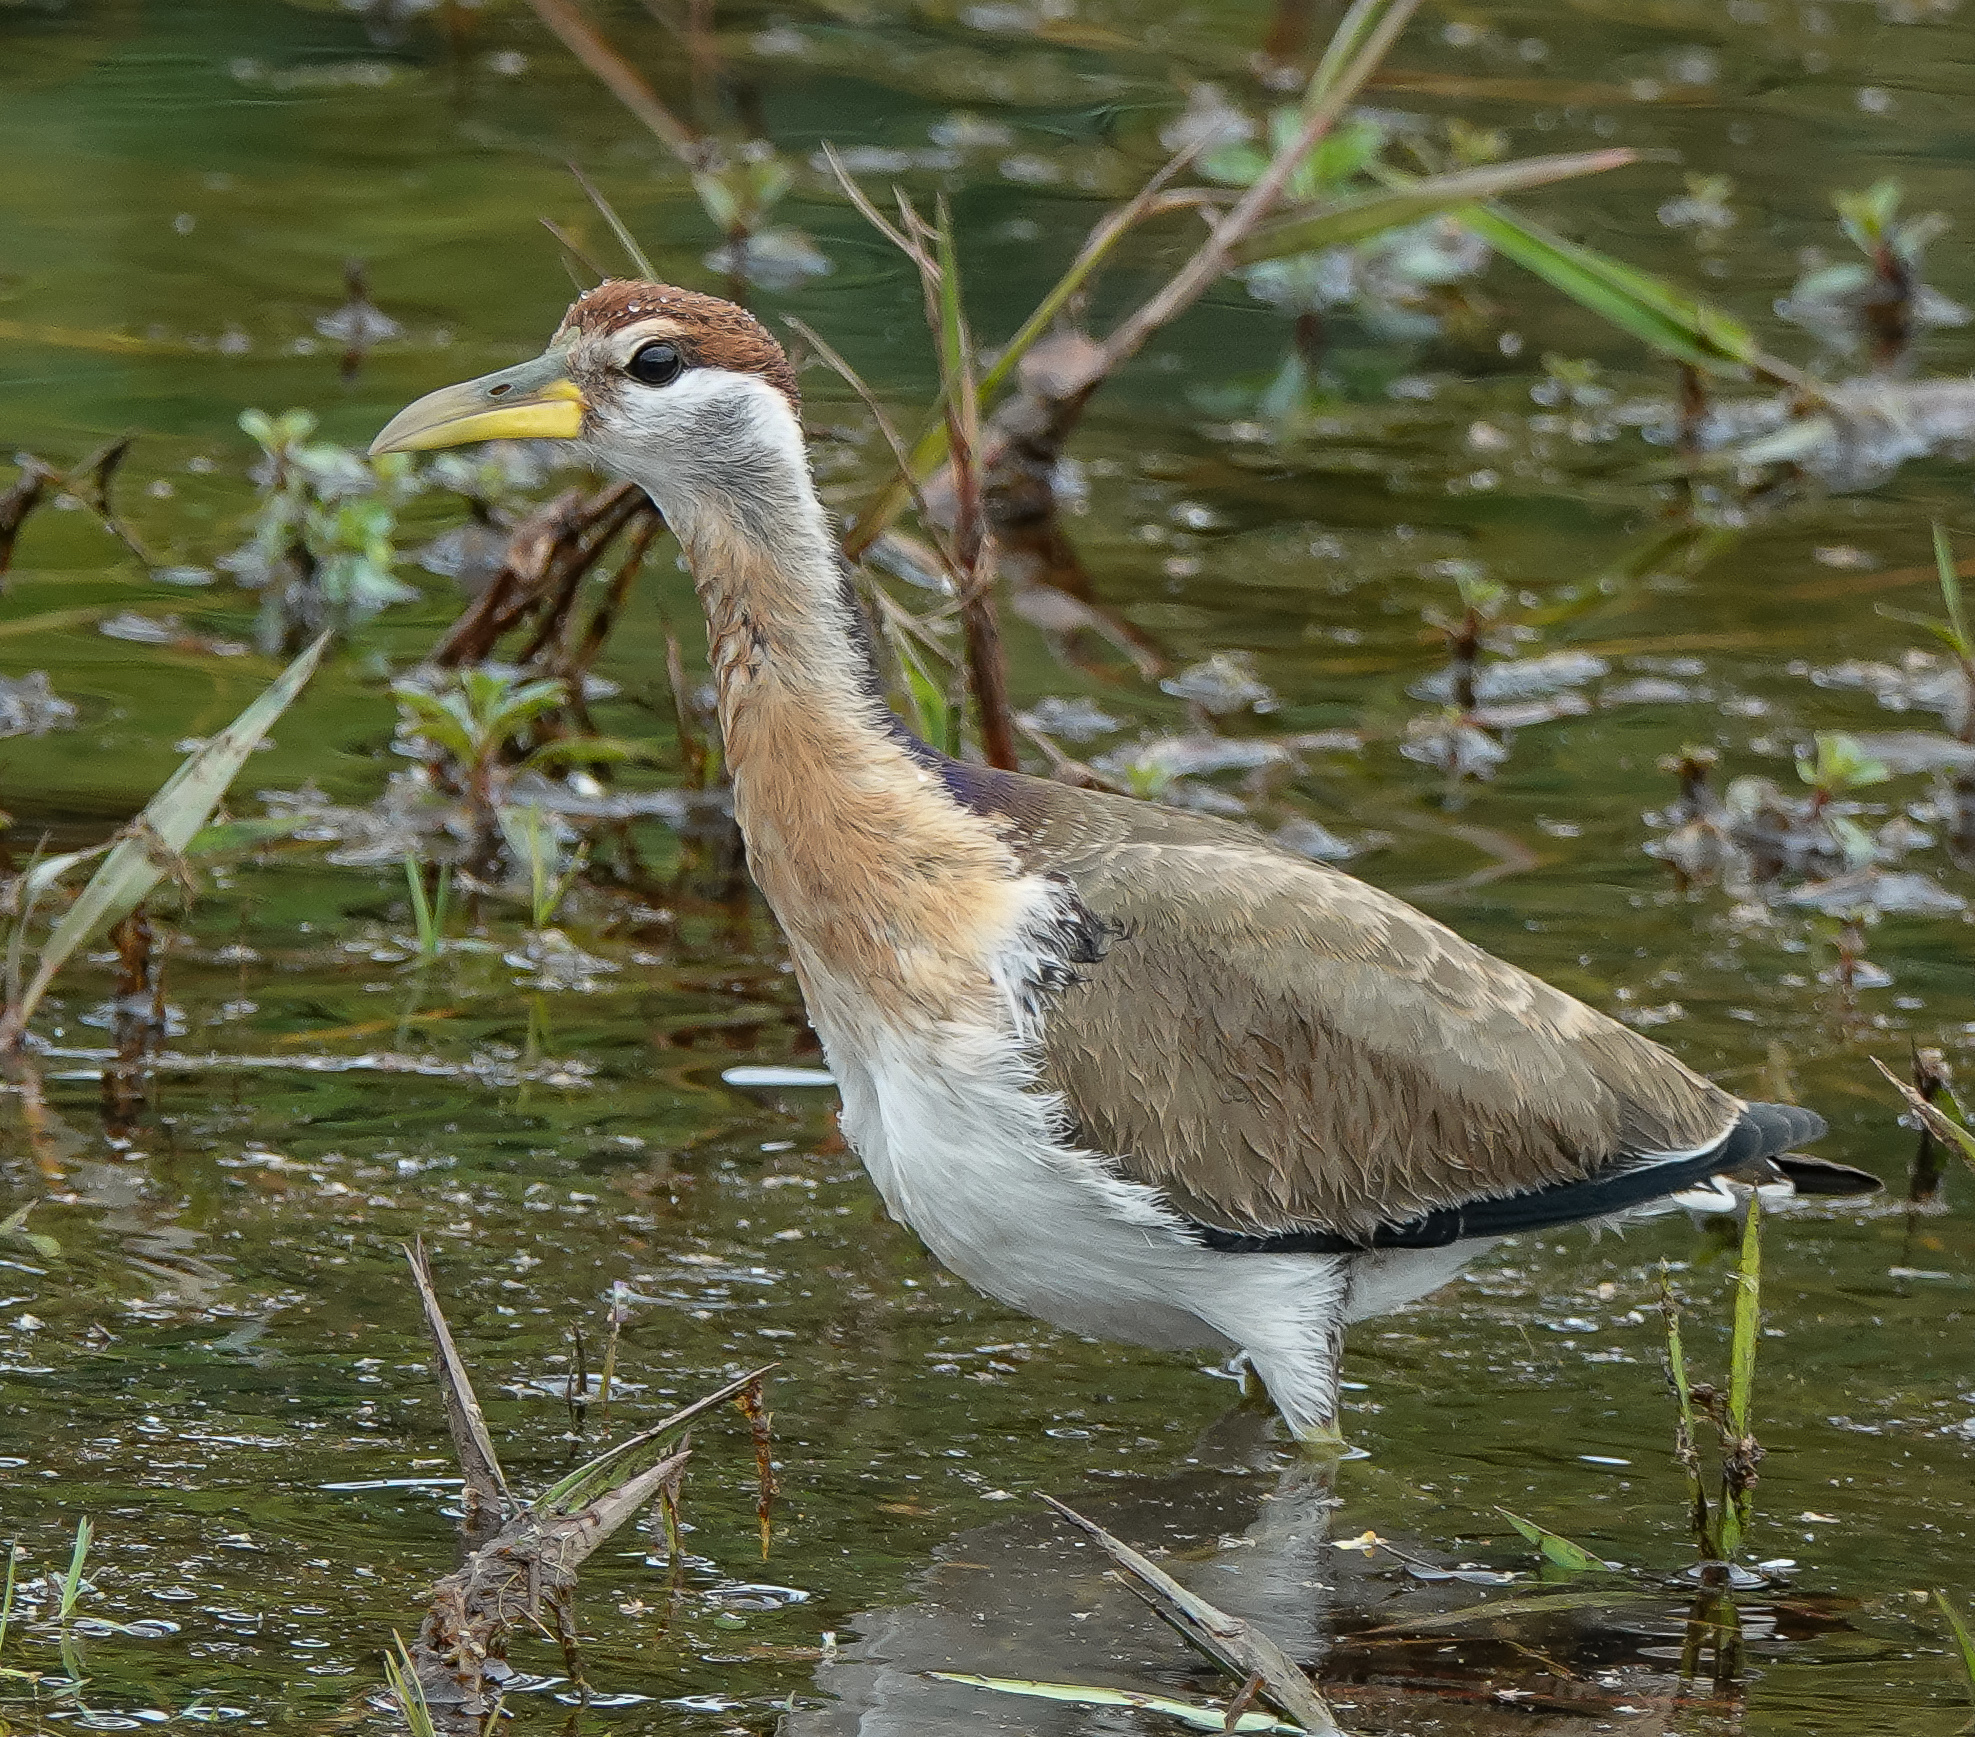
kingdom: Animalia
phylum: Chordata
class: Aves
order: Charadriiformes
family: Jacanidae
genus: Metopidius
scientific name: Metopidius indicus
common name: Bronze-winged jacana
